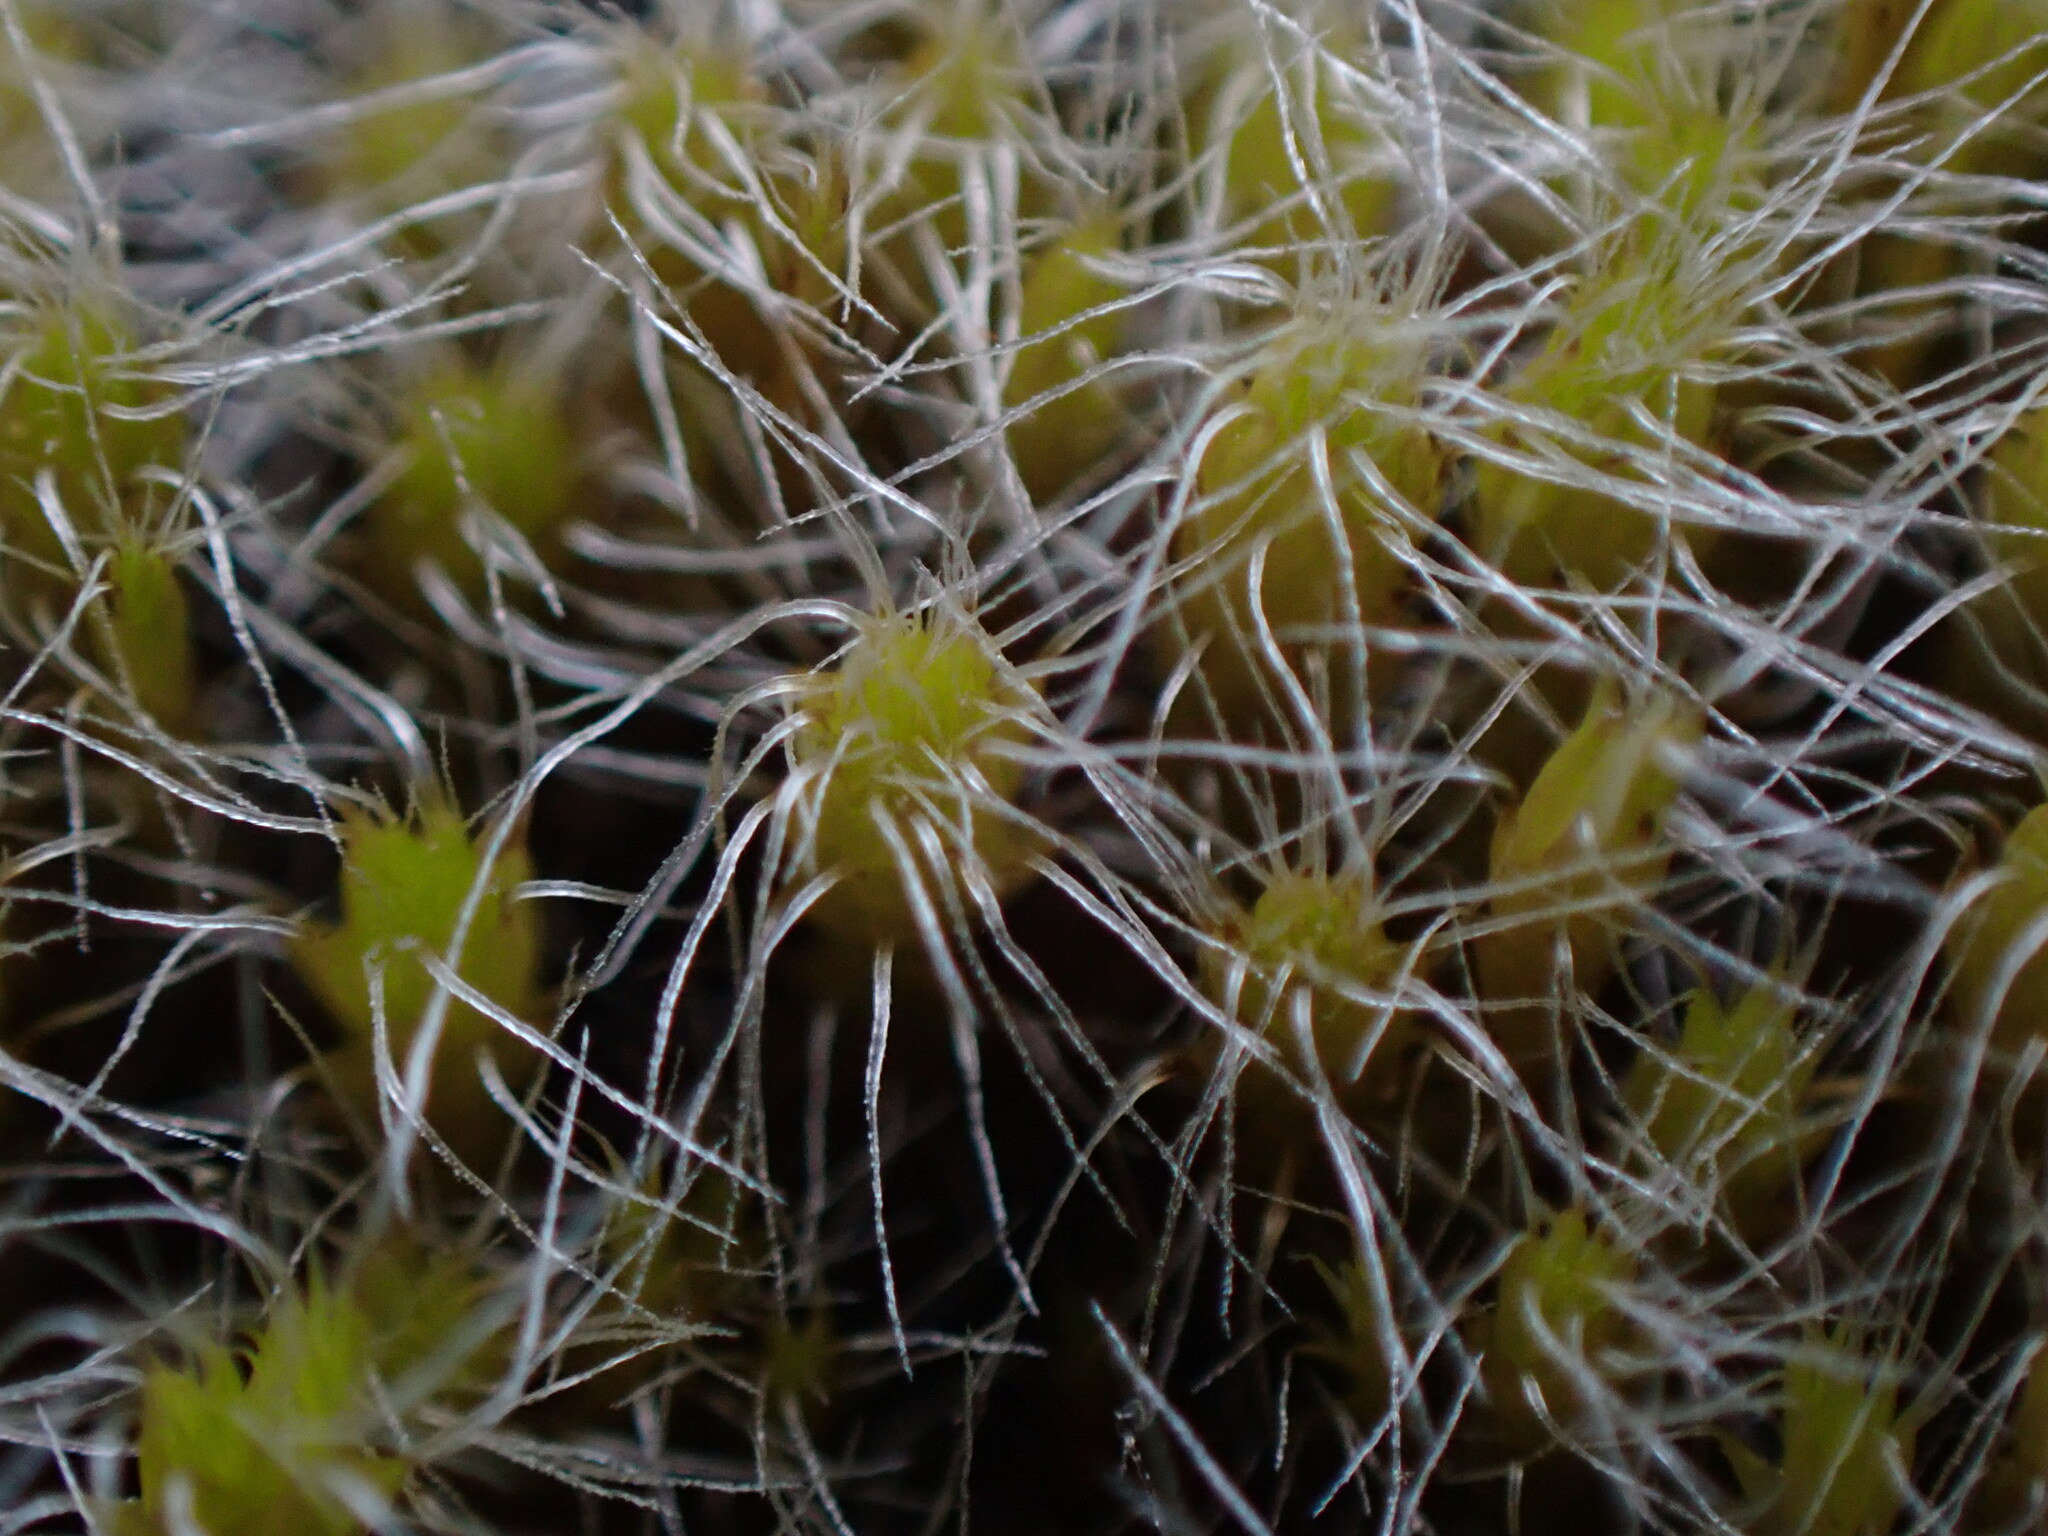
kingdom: Plantae
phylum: Bryophyta
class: Bryopsida
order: Dicranales
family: Leucobryaceae
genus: Campylopus
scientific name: Campylopus introflexus
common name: Heath star moss
